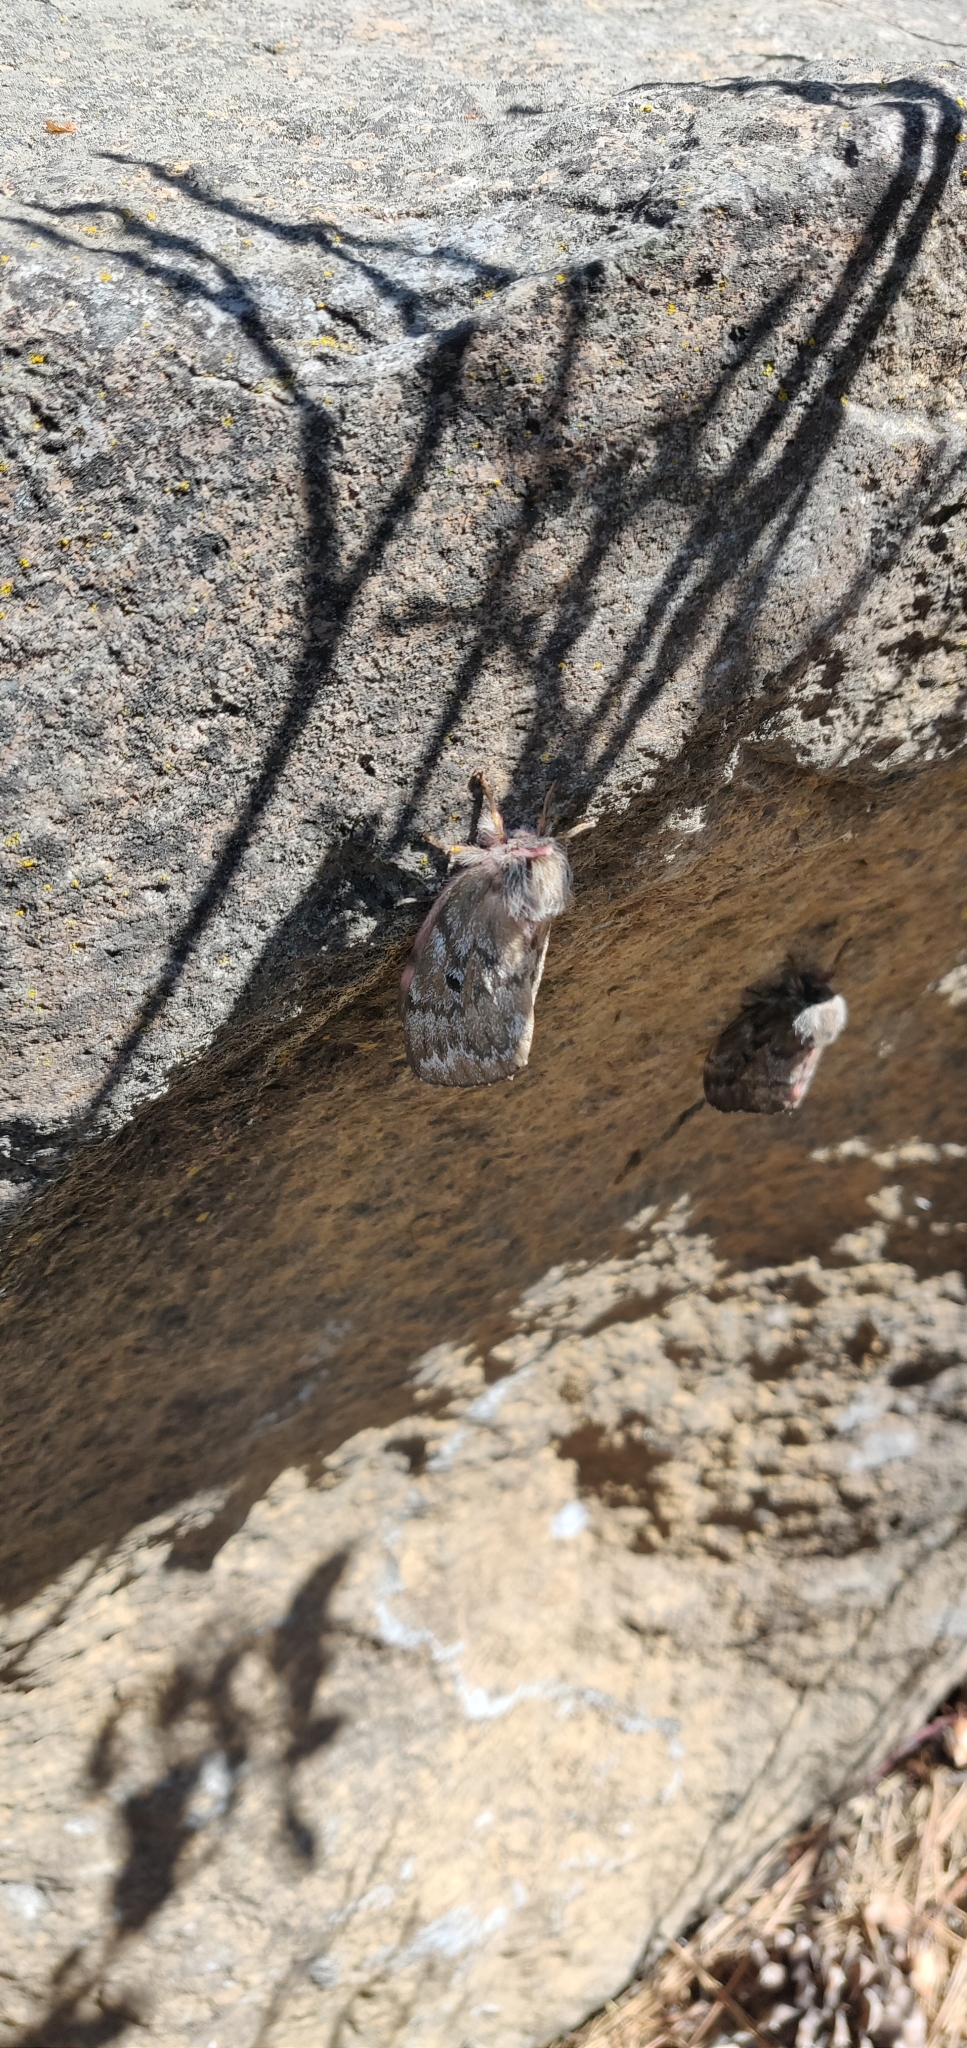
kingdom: Animalia
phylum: Arthropoda
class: Insecta
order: Lepidoptera
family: Saturniidae
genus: Coloradia
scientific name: Coloradia pandora
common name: Pandora pinemoth
